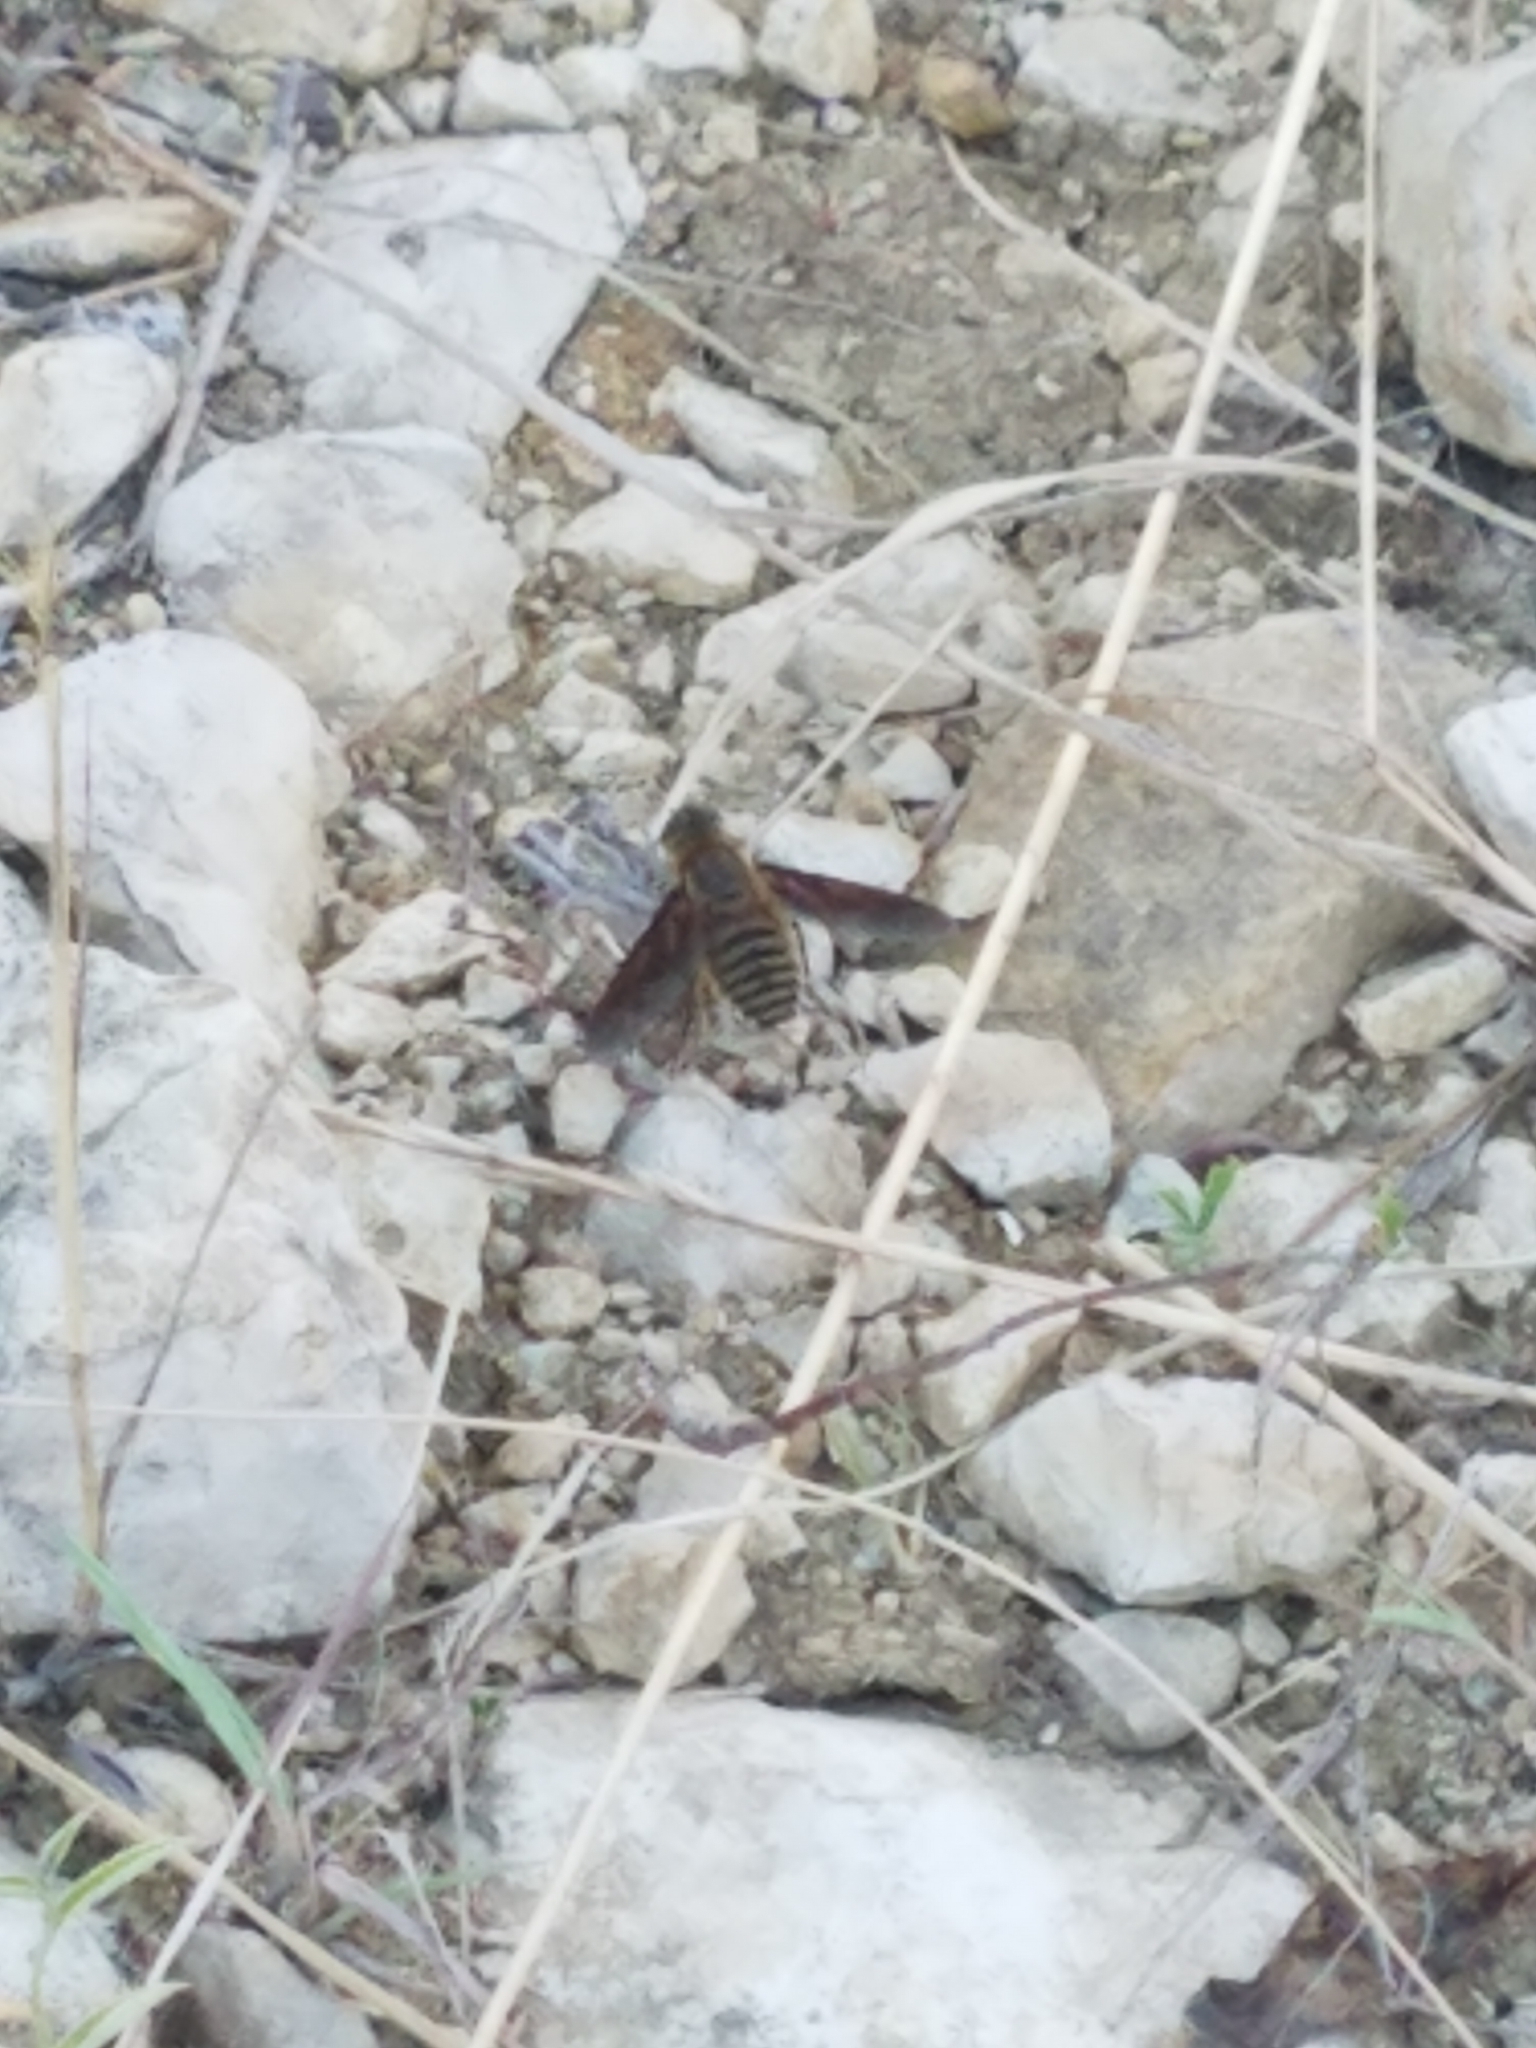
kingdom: Animalia
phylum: Arthropoda
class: Insecta
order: Diptera
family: Bombyliidae
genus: Poecilanthrax
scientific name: Poecilanthrax lucifer
